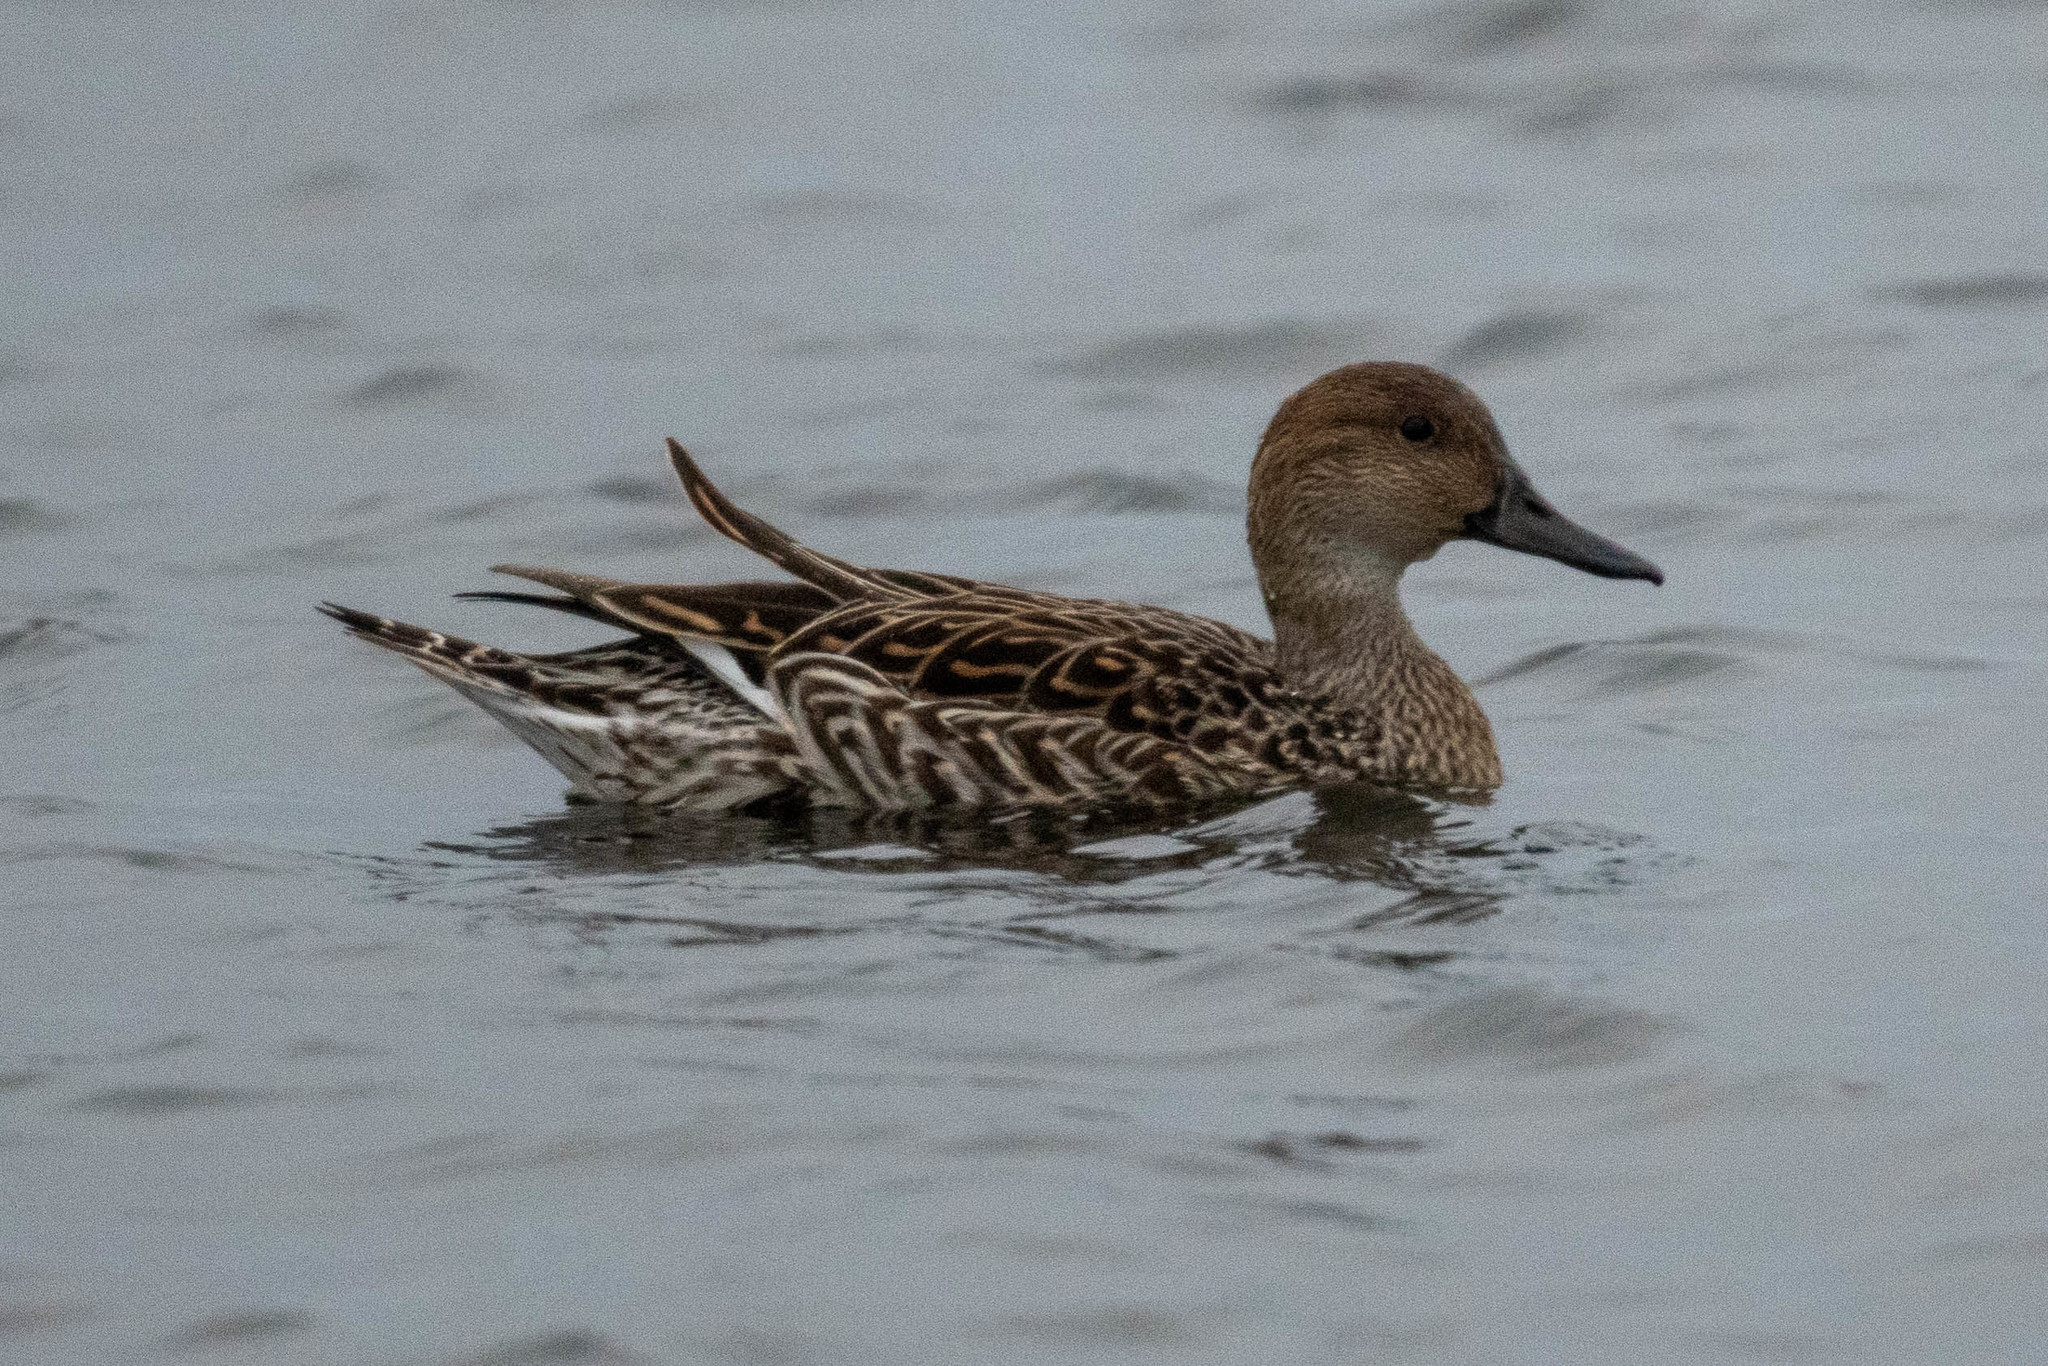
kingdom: Animalia
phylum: Chordata
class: Aves
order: Anseriformes
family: Anatidae
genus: Anas
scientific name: Anas acuta
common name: Northern pintail
